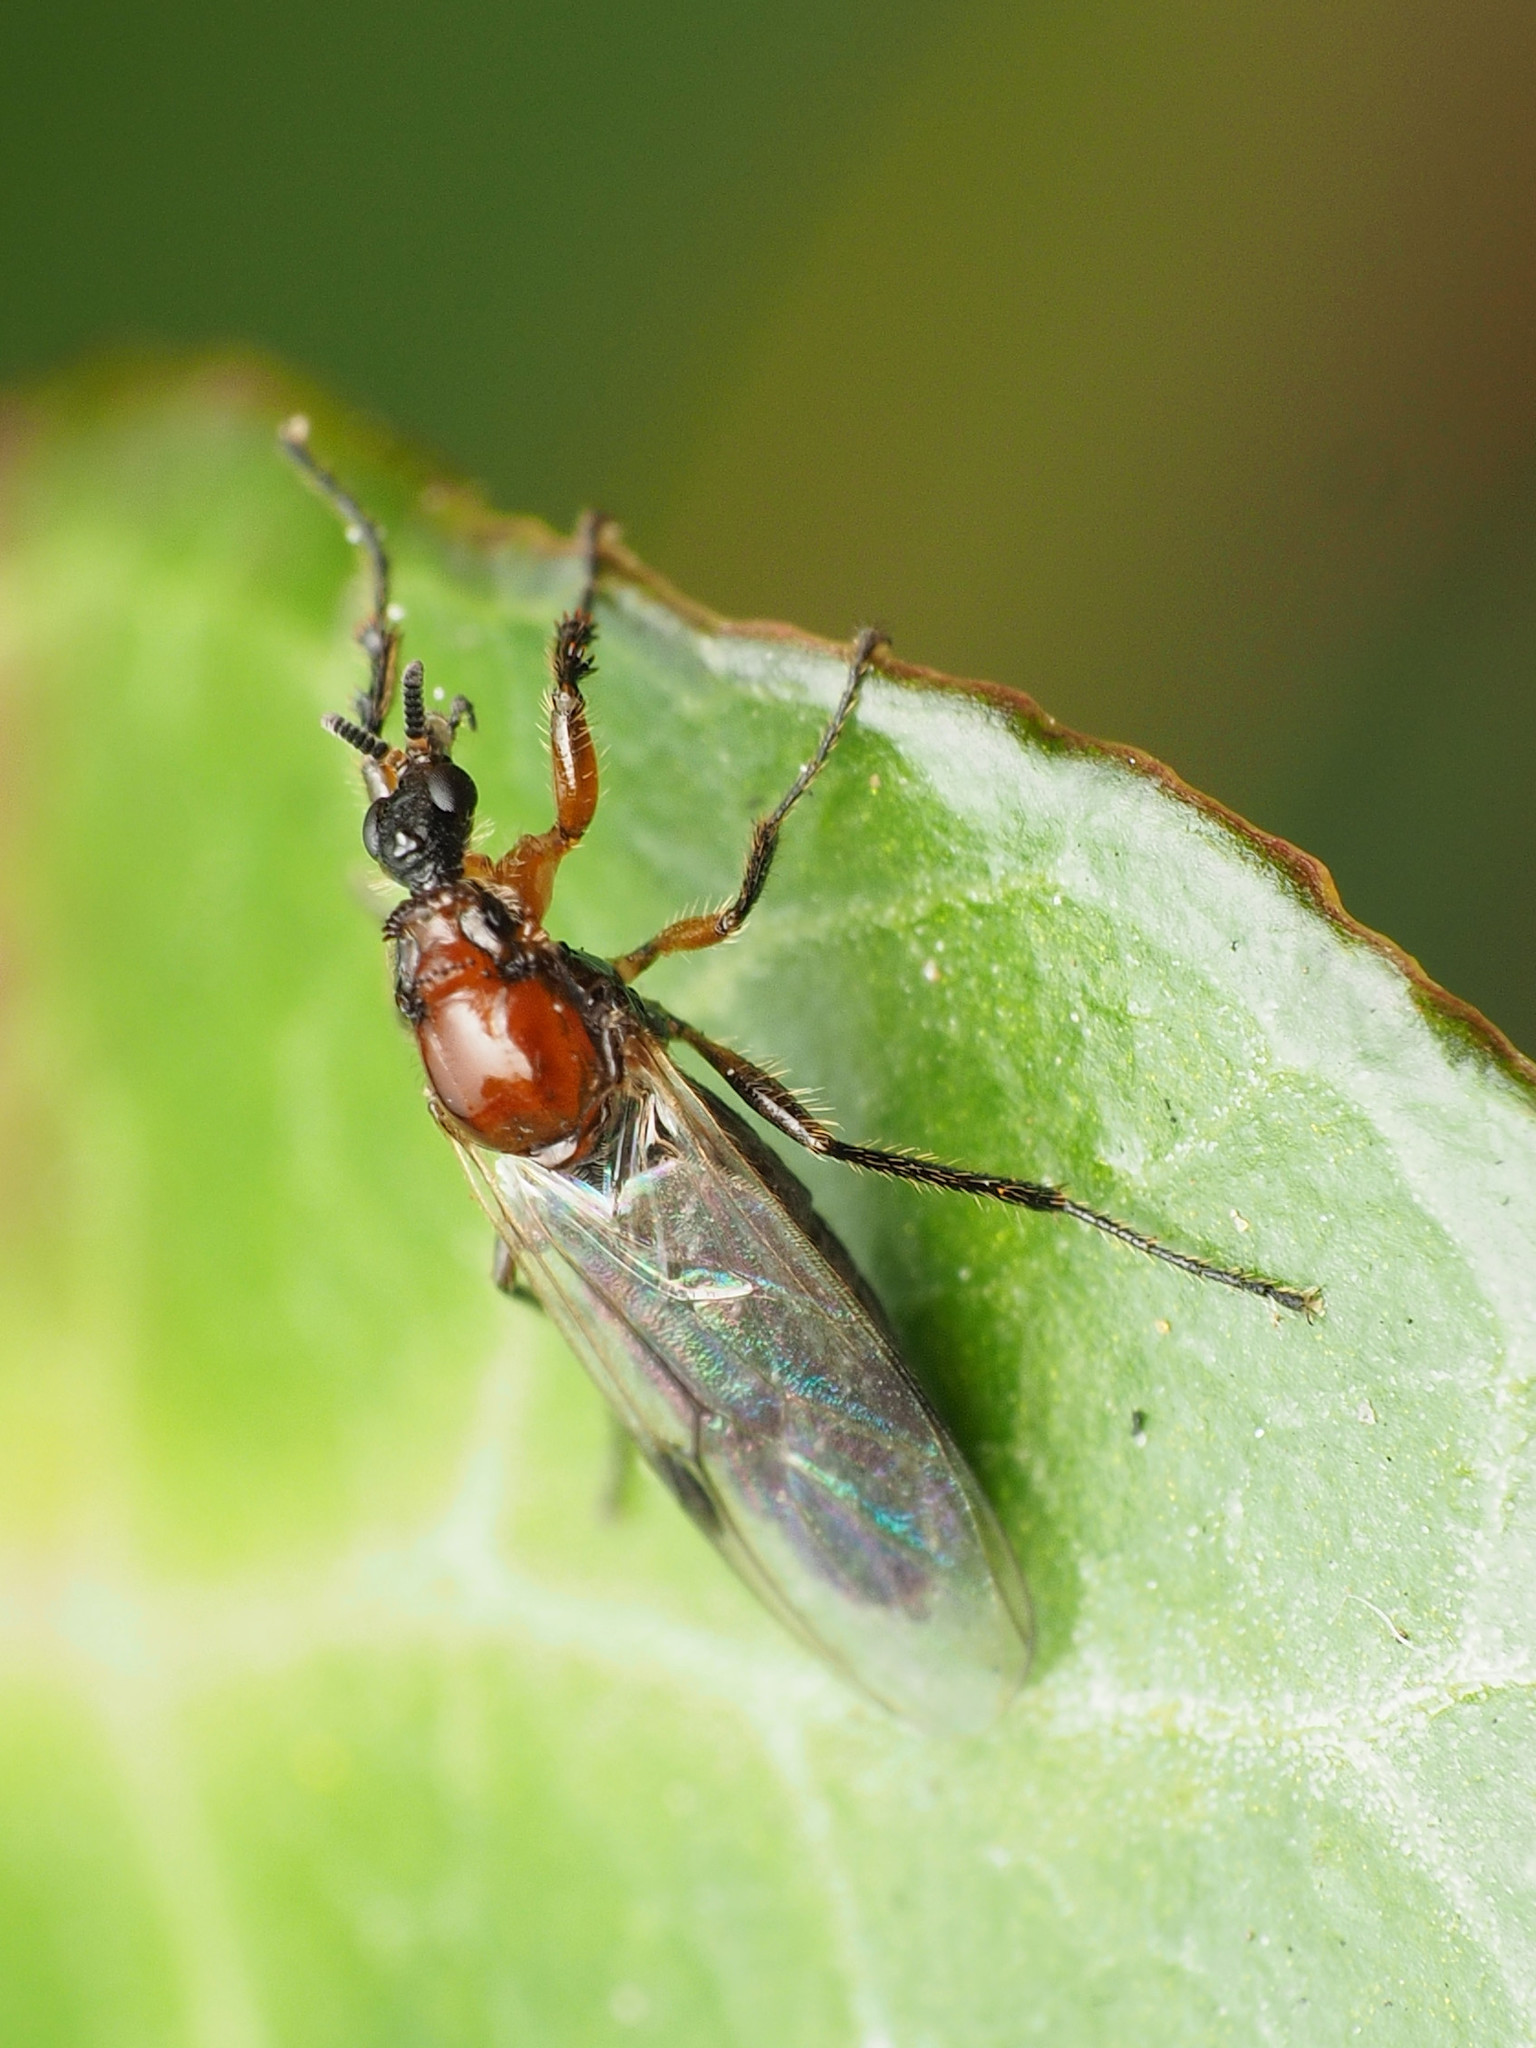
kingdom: Animalia
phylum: Arthropoda
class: Insecta
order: Diptera
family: Bibionidae
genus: Dilophus
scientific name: Dilophus tibialis
